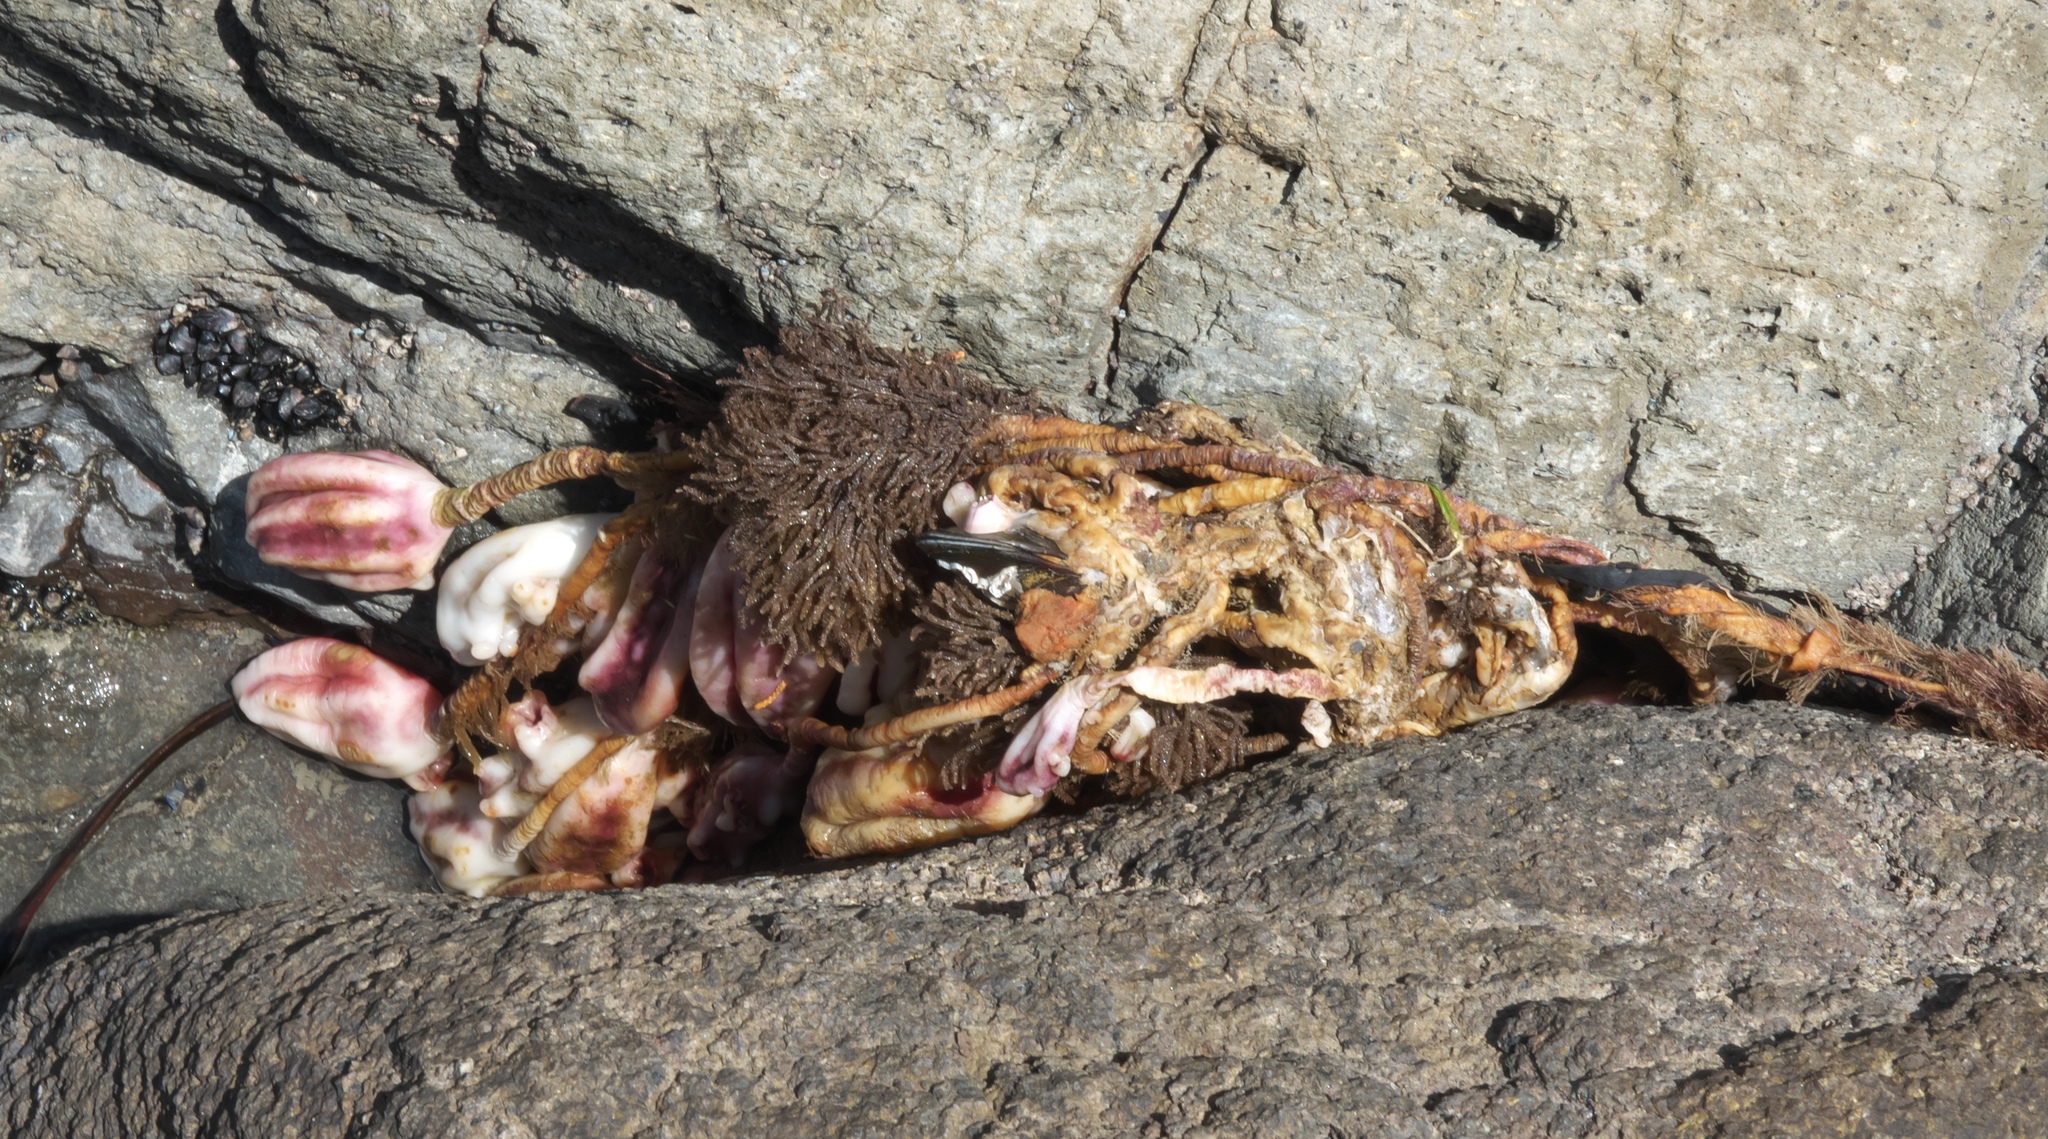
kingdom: Animalia
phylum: Chordata
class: Ascidiacea
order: Stolidobranchia
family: Pyuridae
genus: Pyura
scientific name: Pyura pachydermatina
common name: Sea tulip
